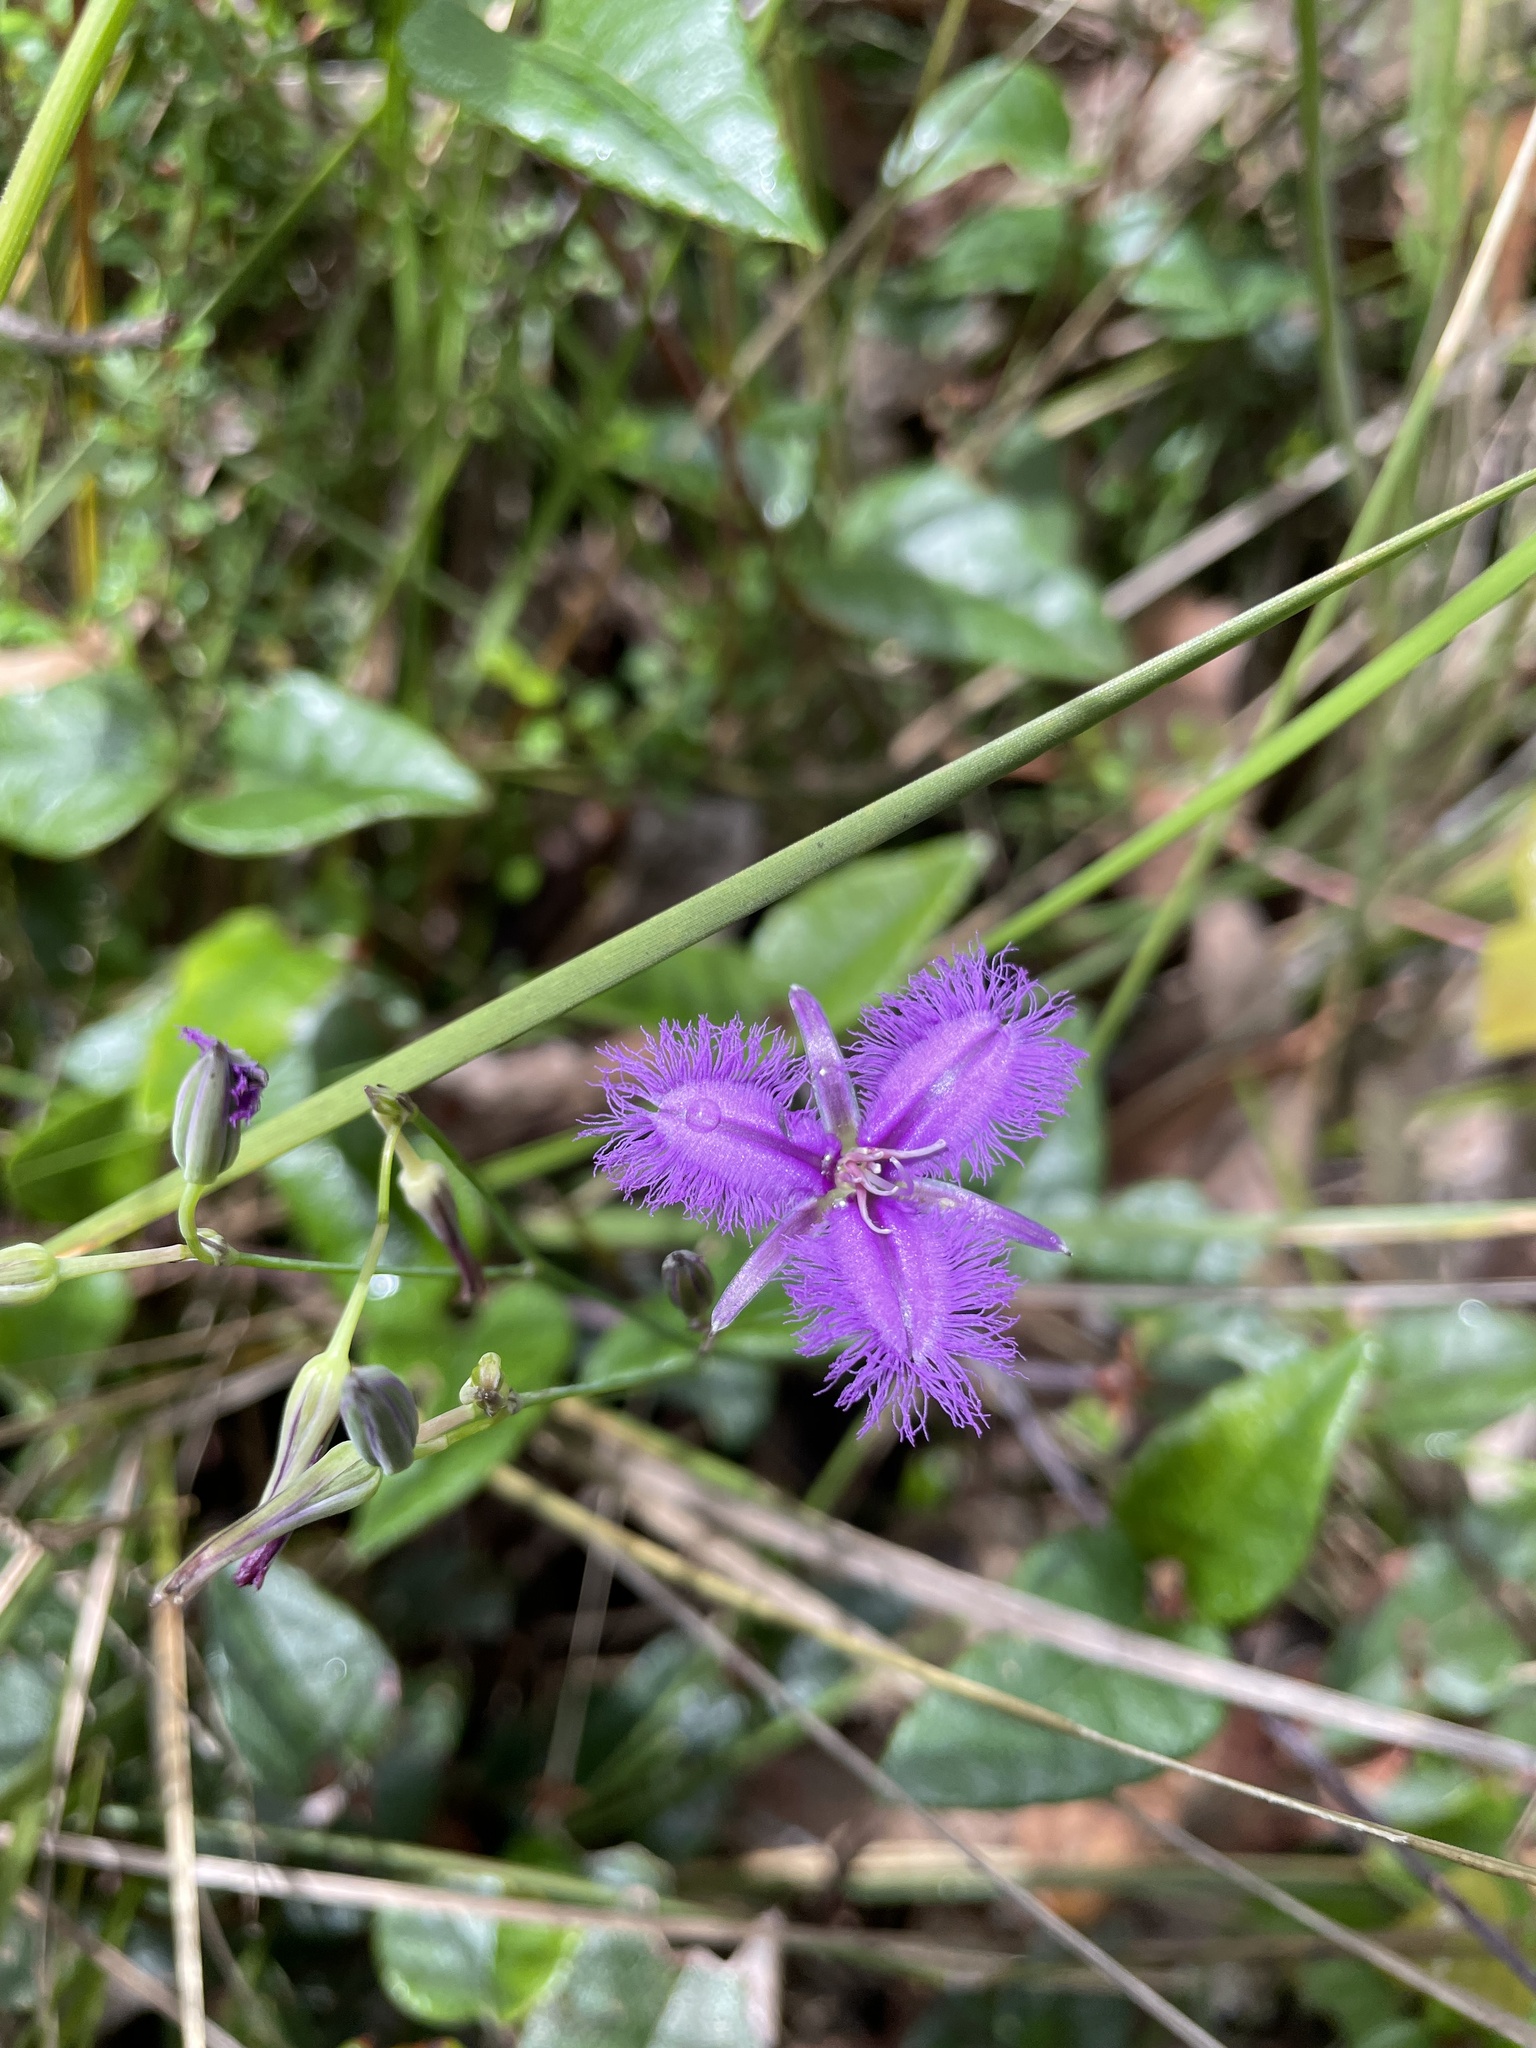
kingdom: Plantae
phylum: Tracheophyta
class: Liliopsida
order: Asparagales
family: Asparagaceae
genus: Thysanotus
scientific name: Thysanotus tuberosus
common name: Common fringed-lily
